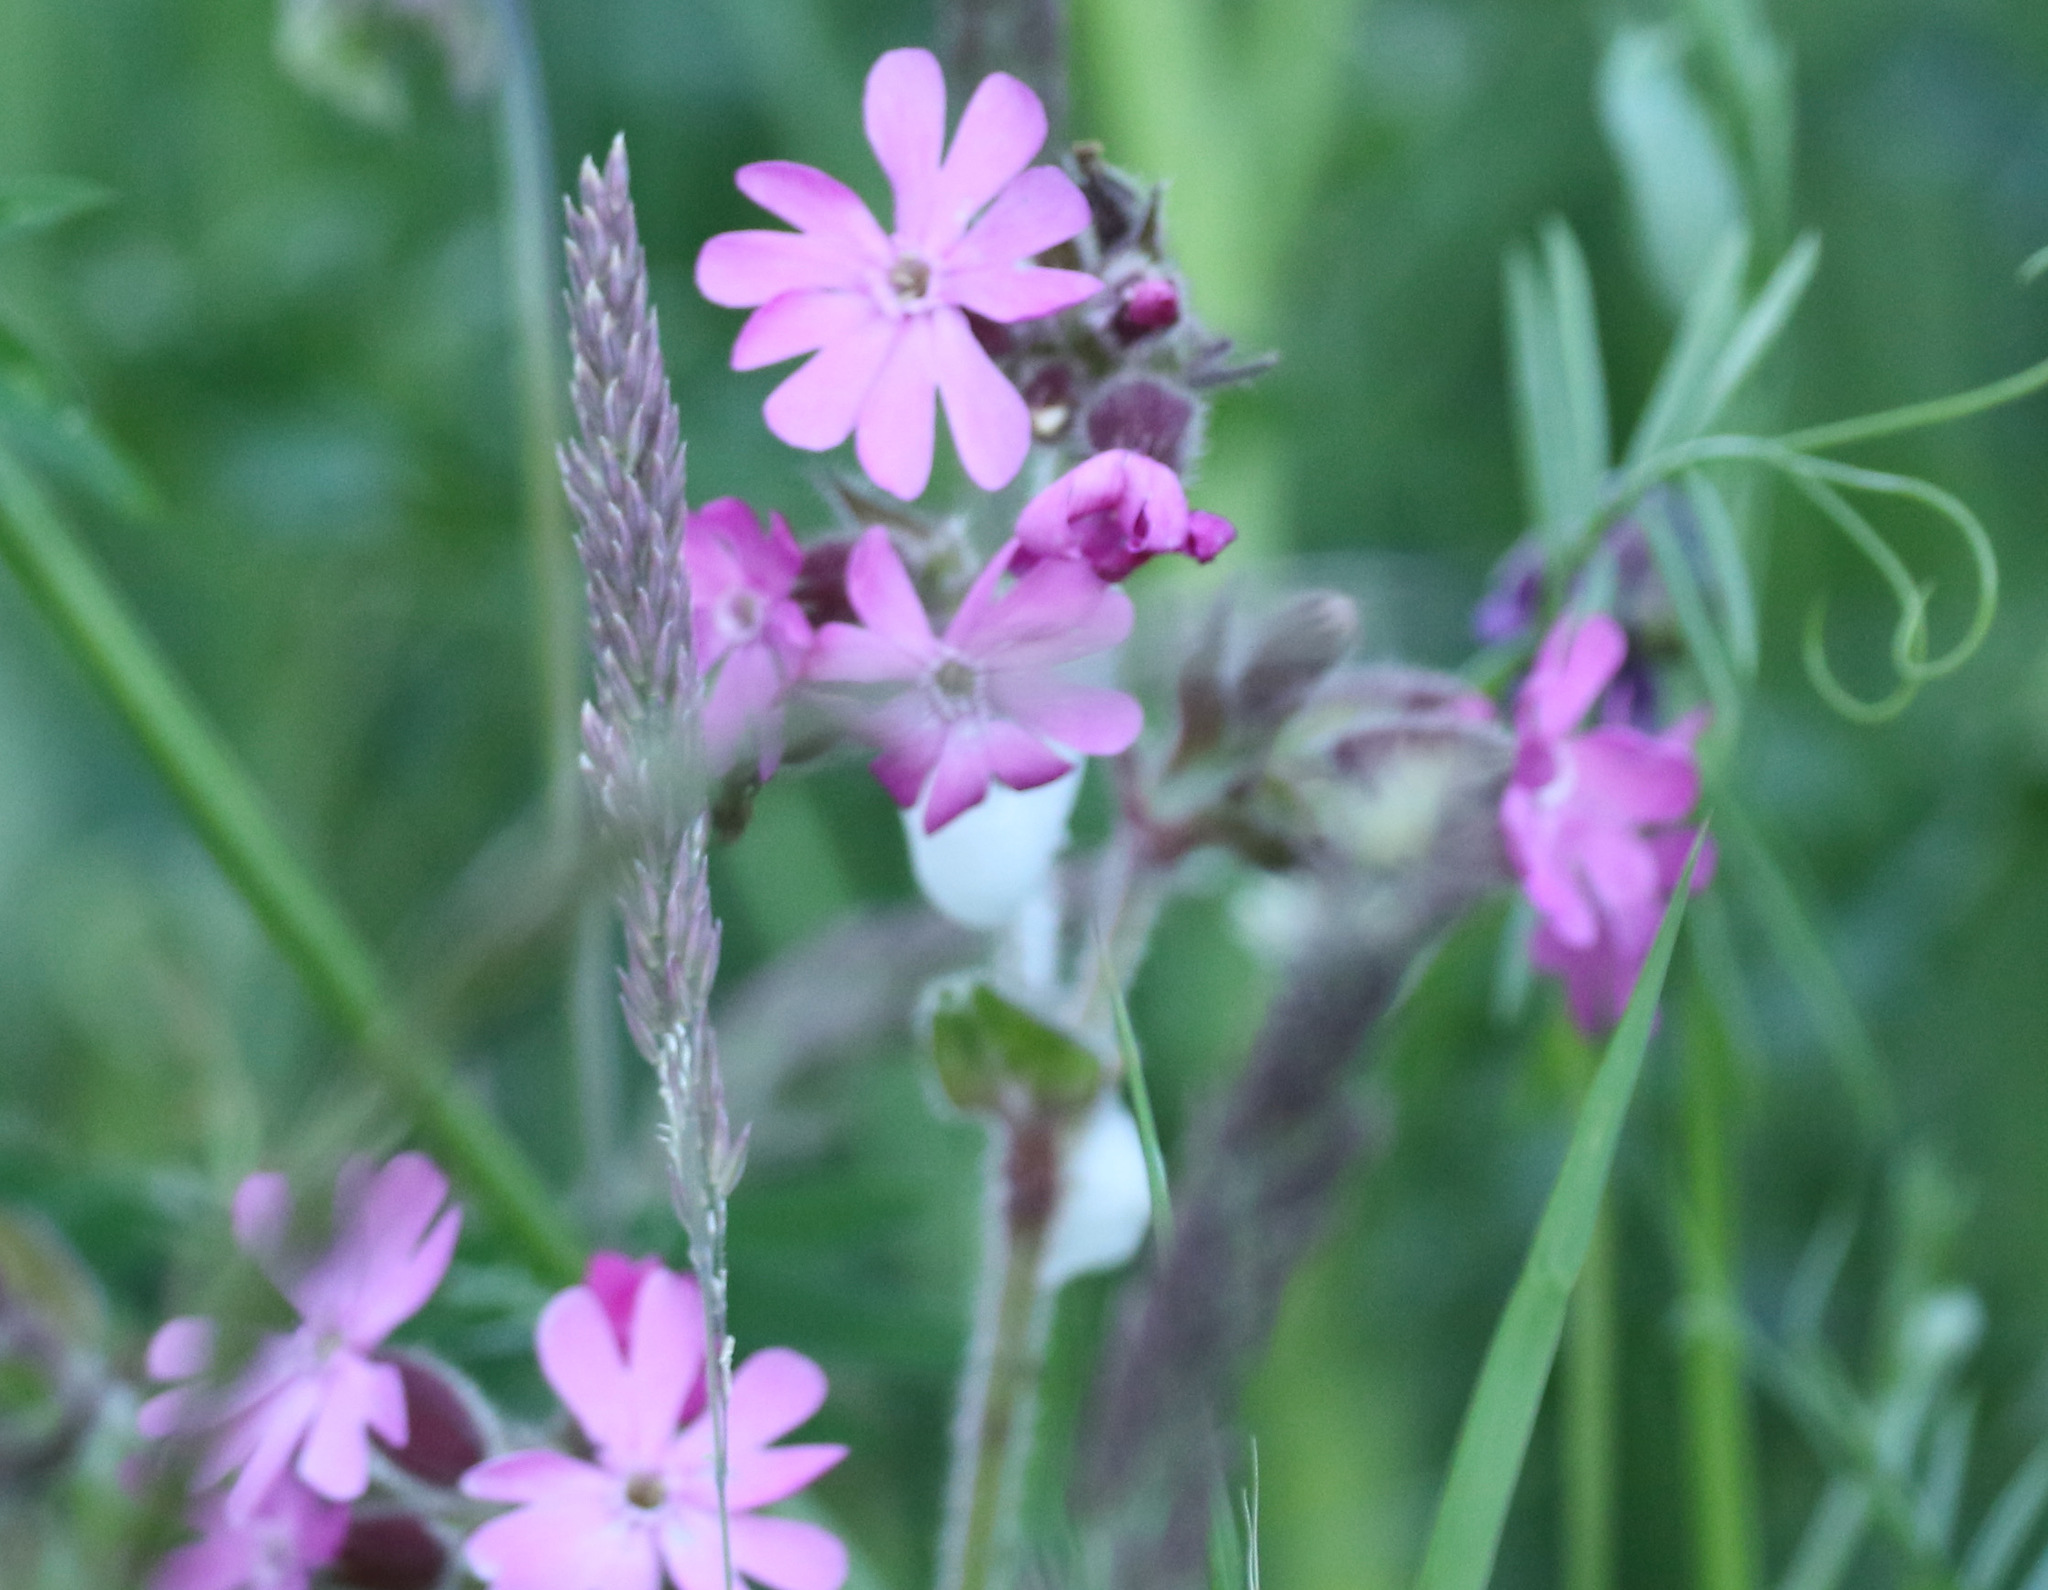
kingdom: Plantae
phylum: Tracheophyta
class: Magnoliopsida
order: Caryophyllales
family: Caryophyllaceae
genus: Silene
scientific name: Silene dioica
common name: Red campion
